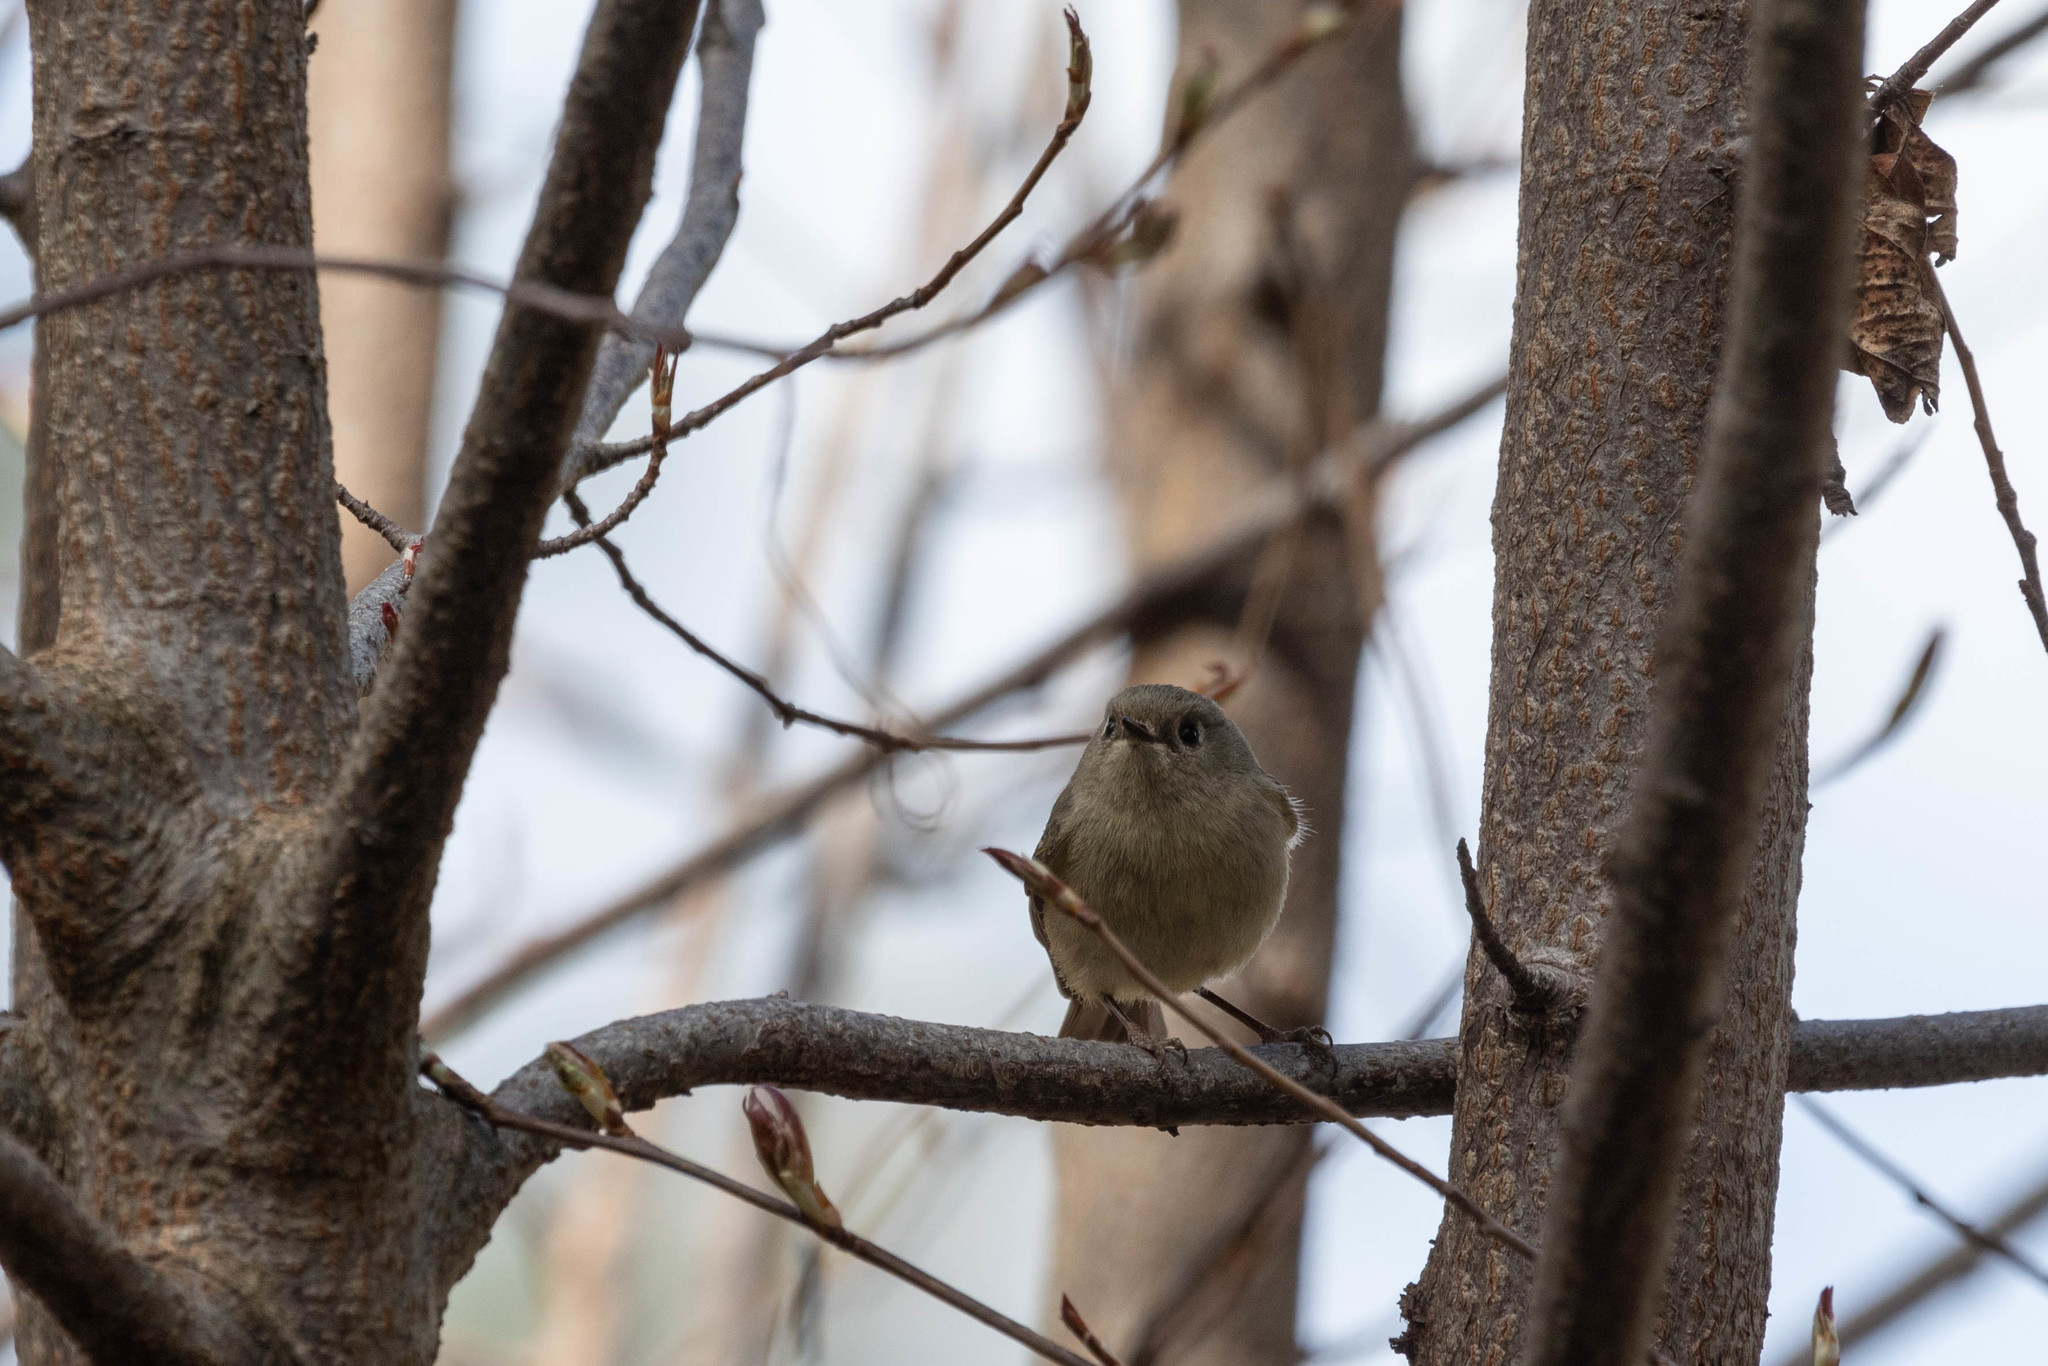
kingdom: Animalia
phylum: Chordata
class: Aves
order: Passeriformes
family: Regulidae
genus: Regulus
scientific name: Regulus calendula
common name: Ruby-crowned kinglet
